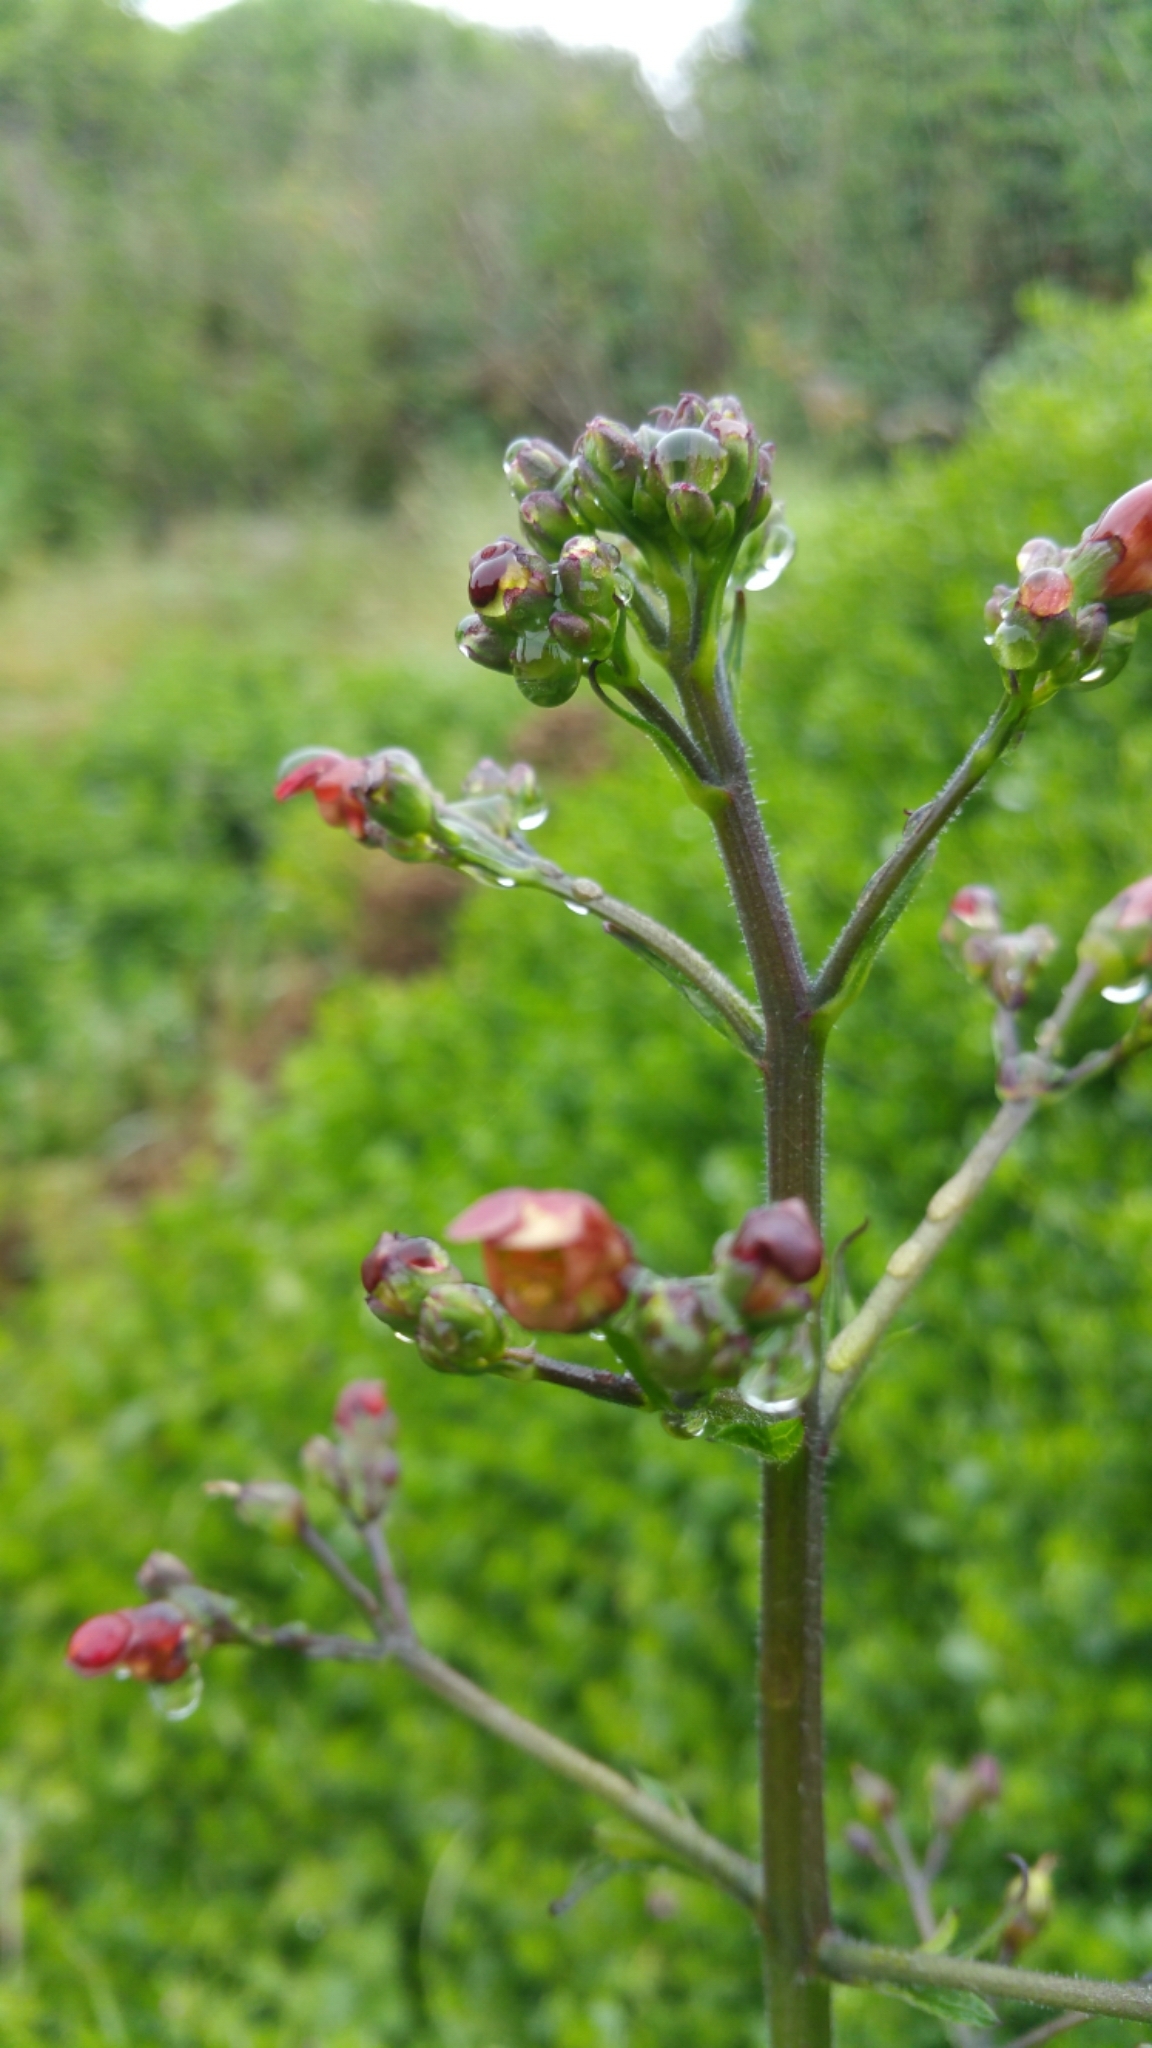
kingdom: Plantae
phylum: Tracheophyta
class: Magnoliopsida
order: Lamiales
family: Scrophulariaceae
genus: Scrophularia
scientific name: Scrophularia californica
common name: California figwort
